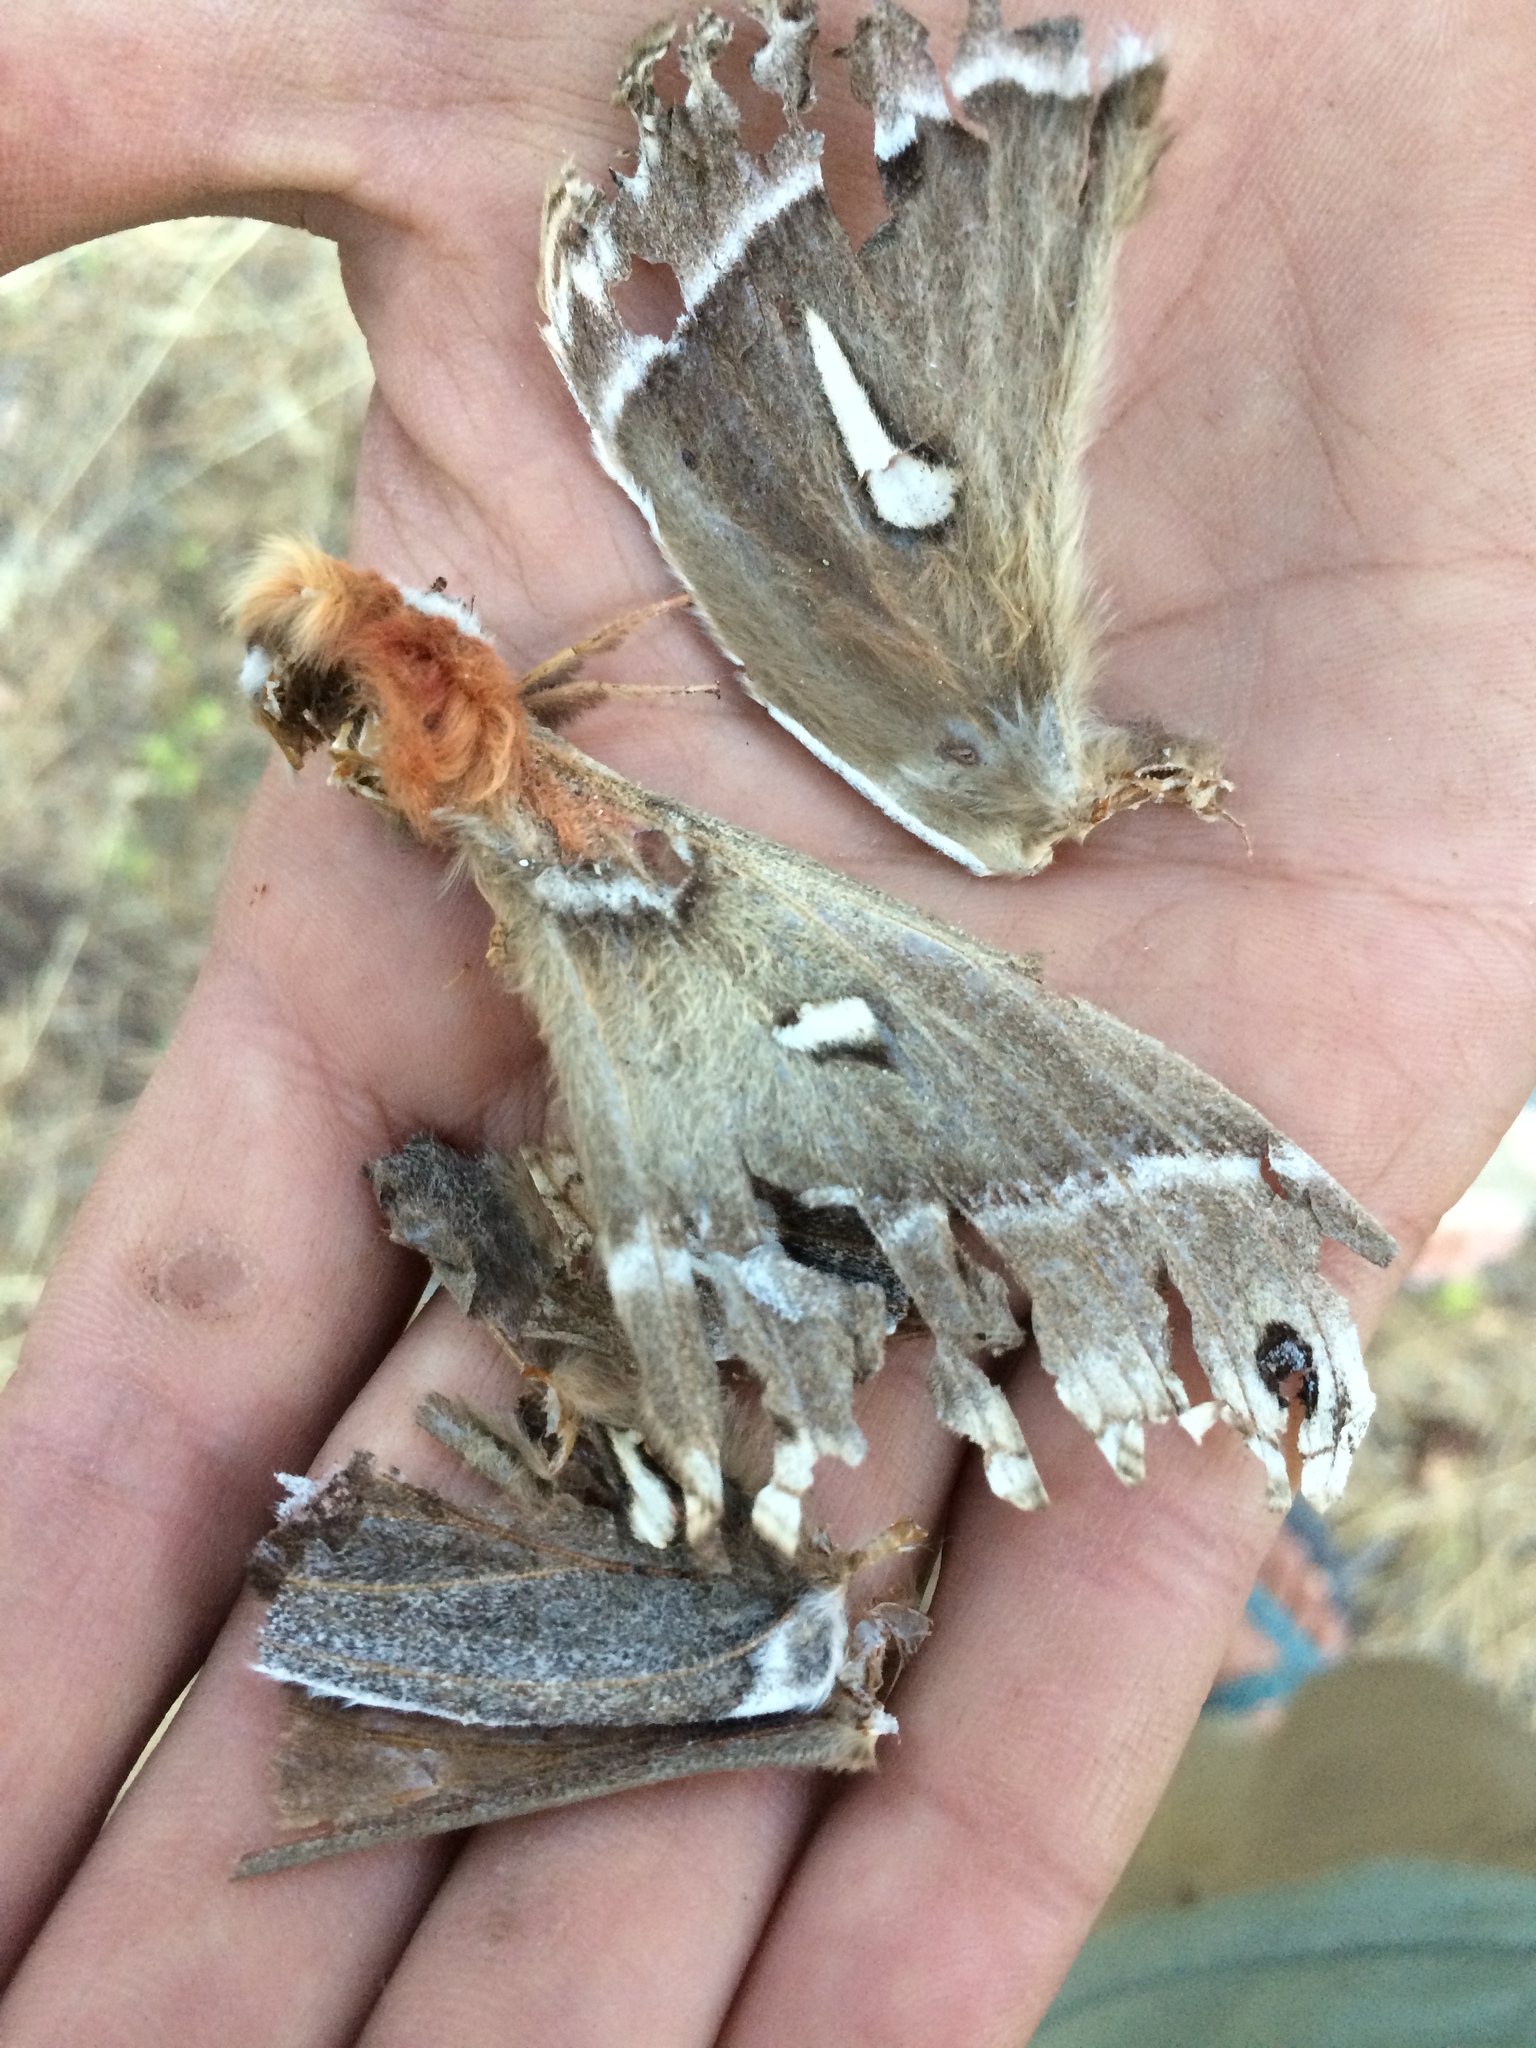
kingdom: Animalia
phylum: Arthropoda
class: Insecta
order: Lepidoptera
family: Saturniidae
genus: Hyalophora
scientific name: Hyalophora euryalus
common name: Ceanothus silkmoth
